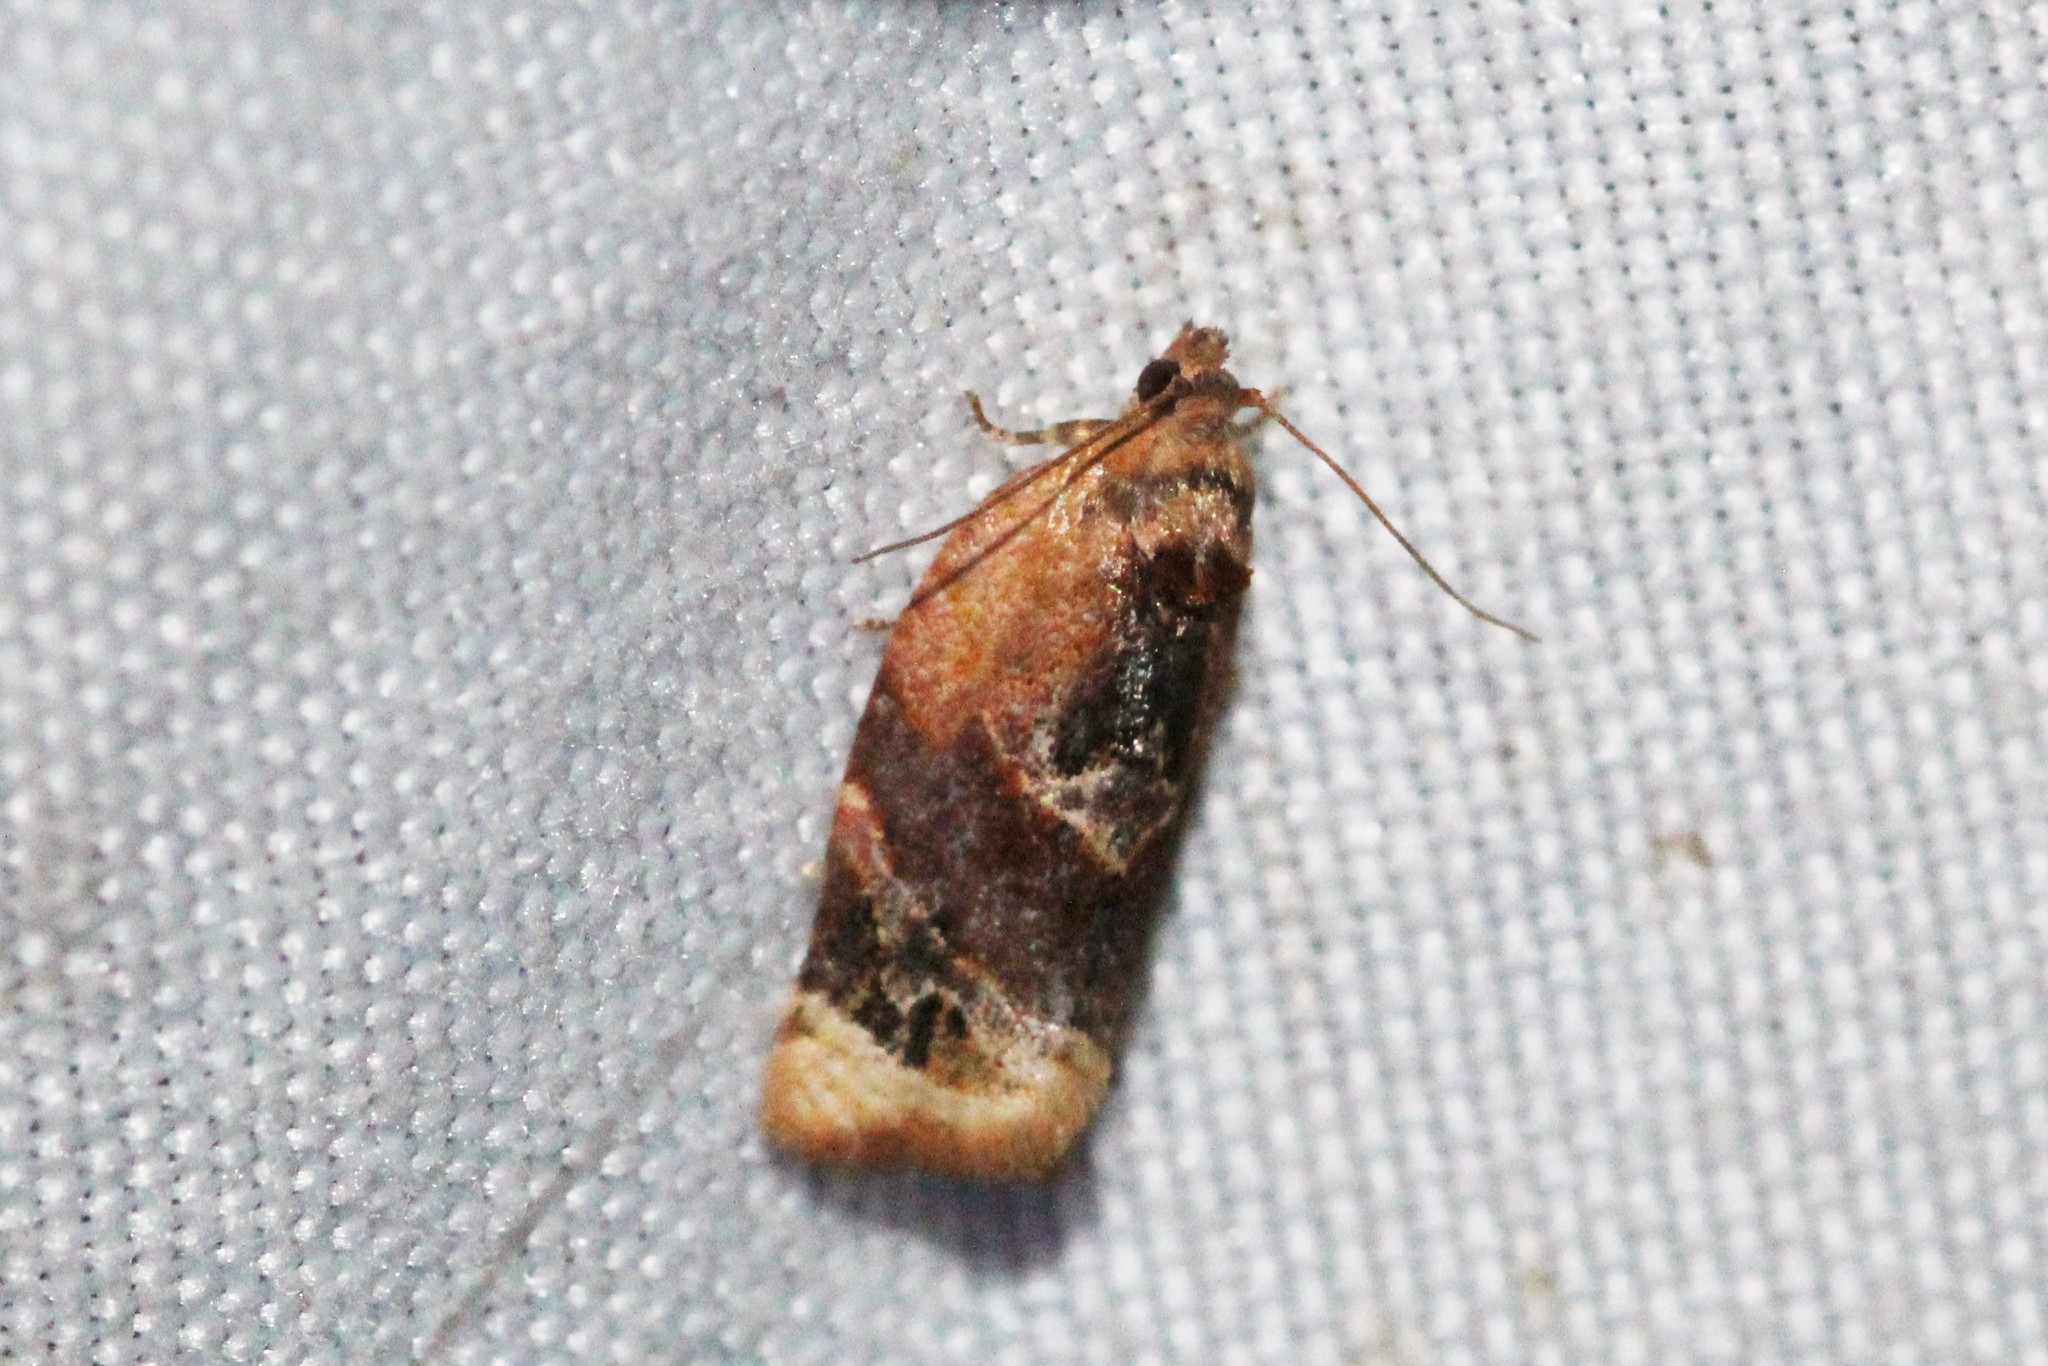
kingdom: Animalia
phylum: Arthropoda
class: Insecta
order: Lepidoptera
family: Tortricidae
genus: Argyrotaenia
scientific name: Argyrotaenia velutinana
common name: Red-banded leafroller moth
